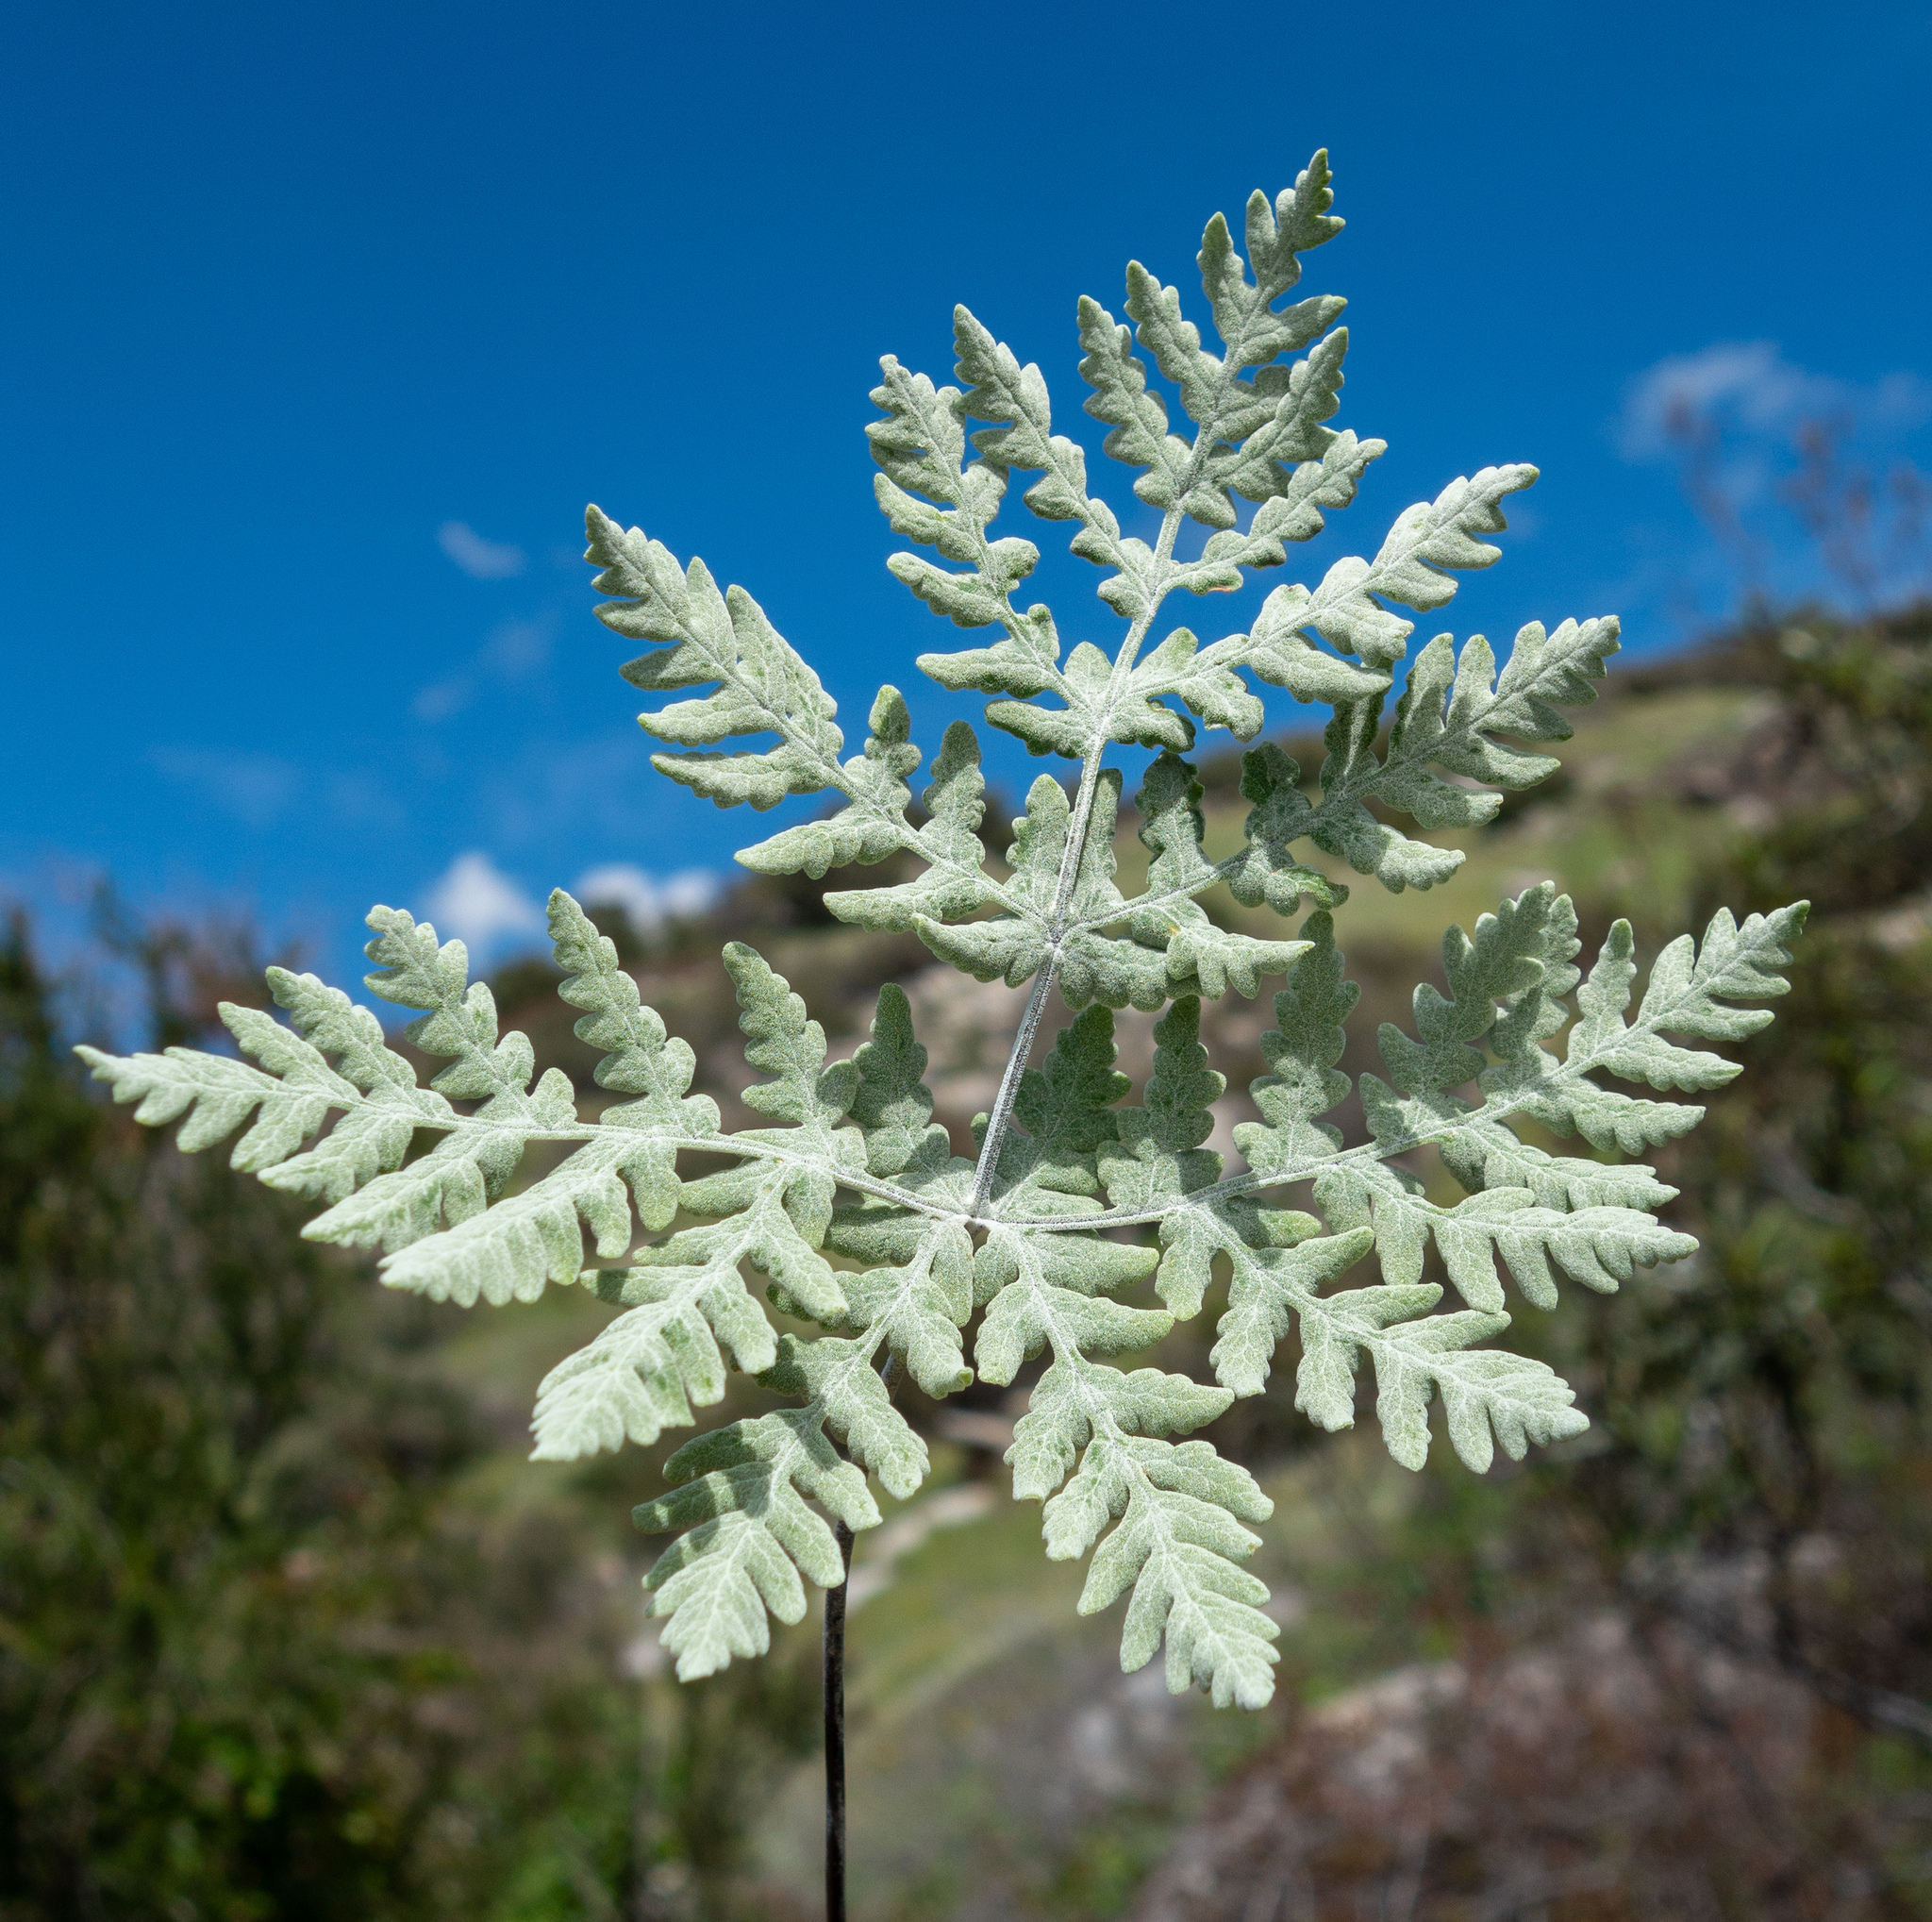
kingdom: Plantae
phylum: Tracheophyta
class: Polypodiopsida
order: Polypodiales
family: Pteridaceae
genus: Pentagramma
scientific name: Pentagramma pallida
